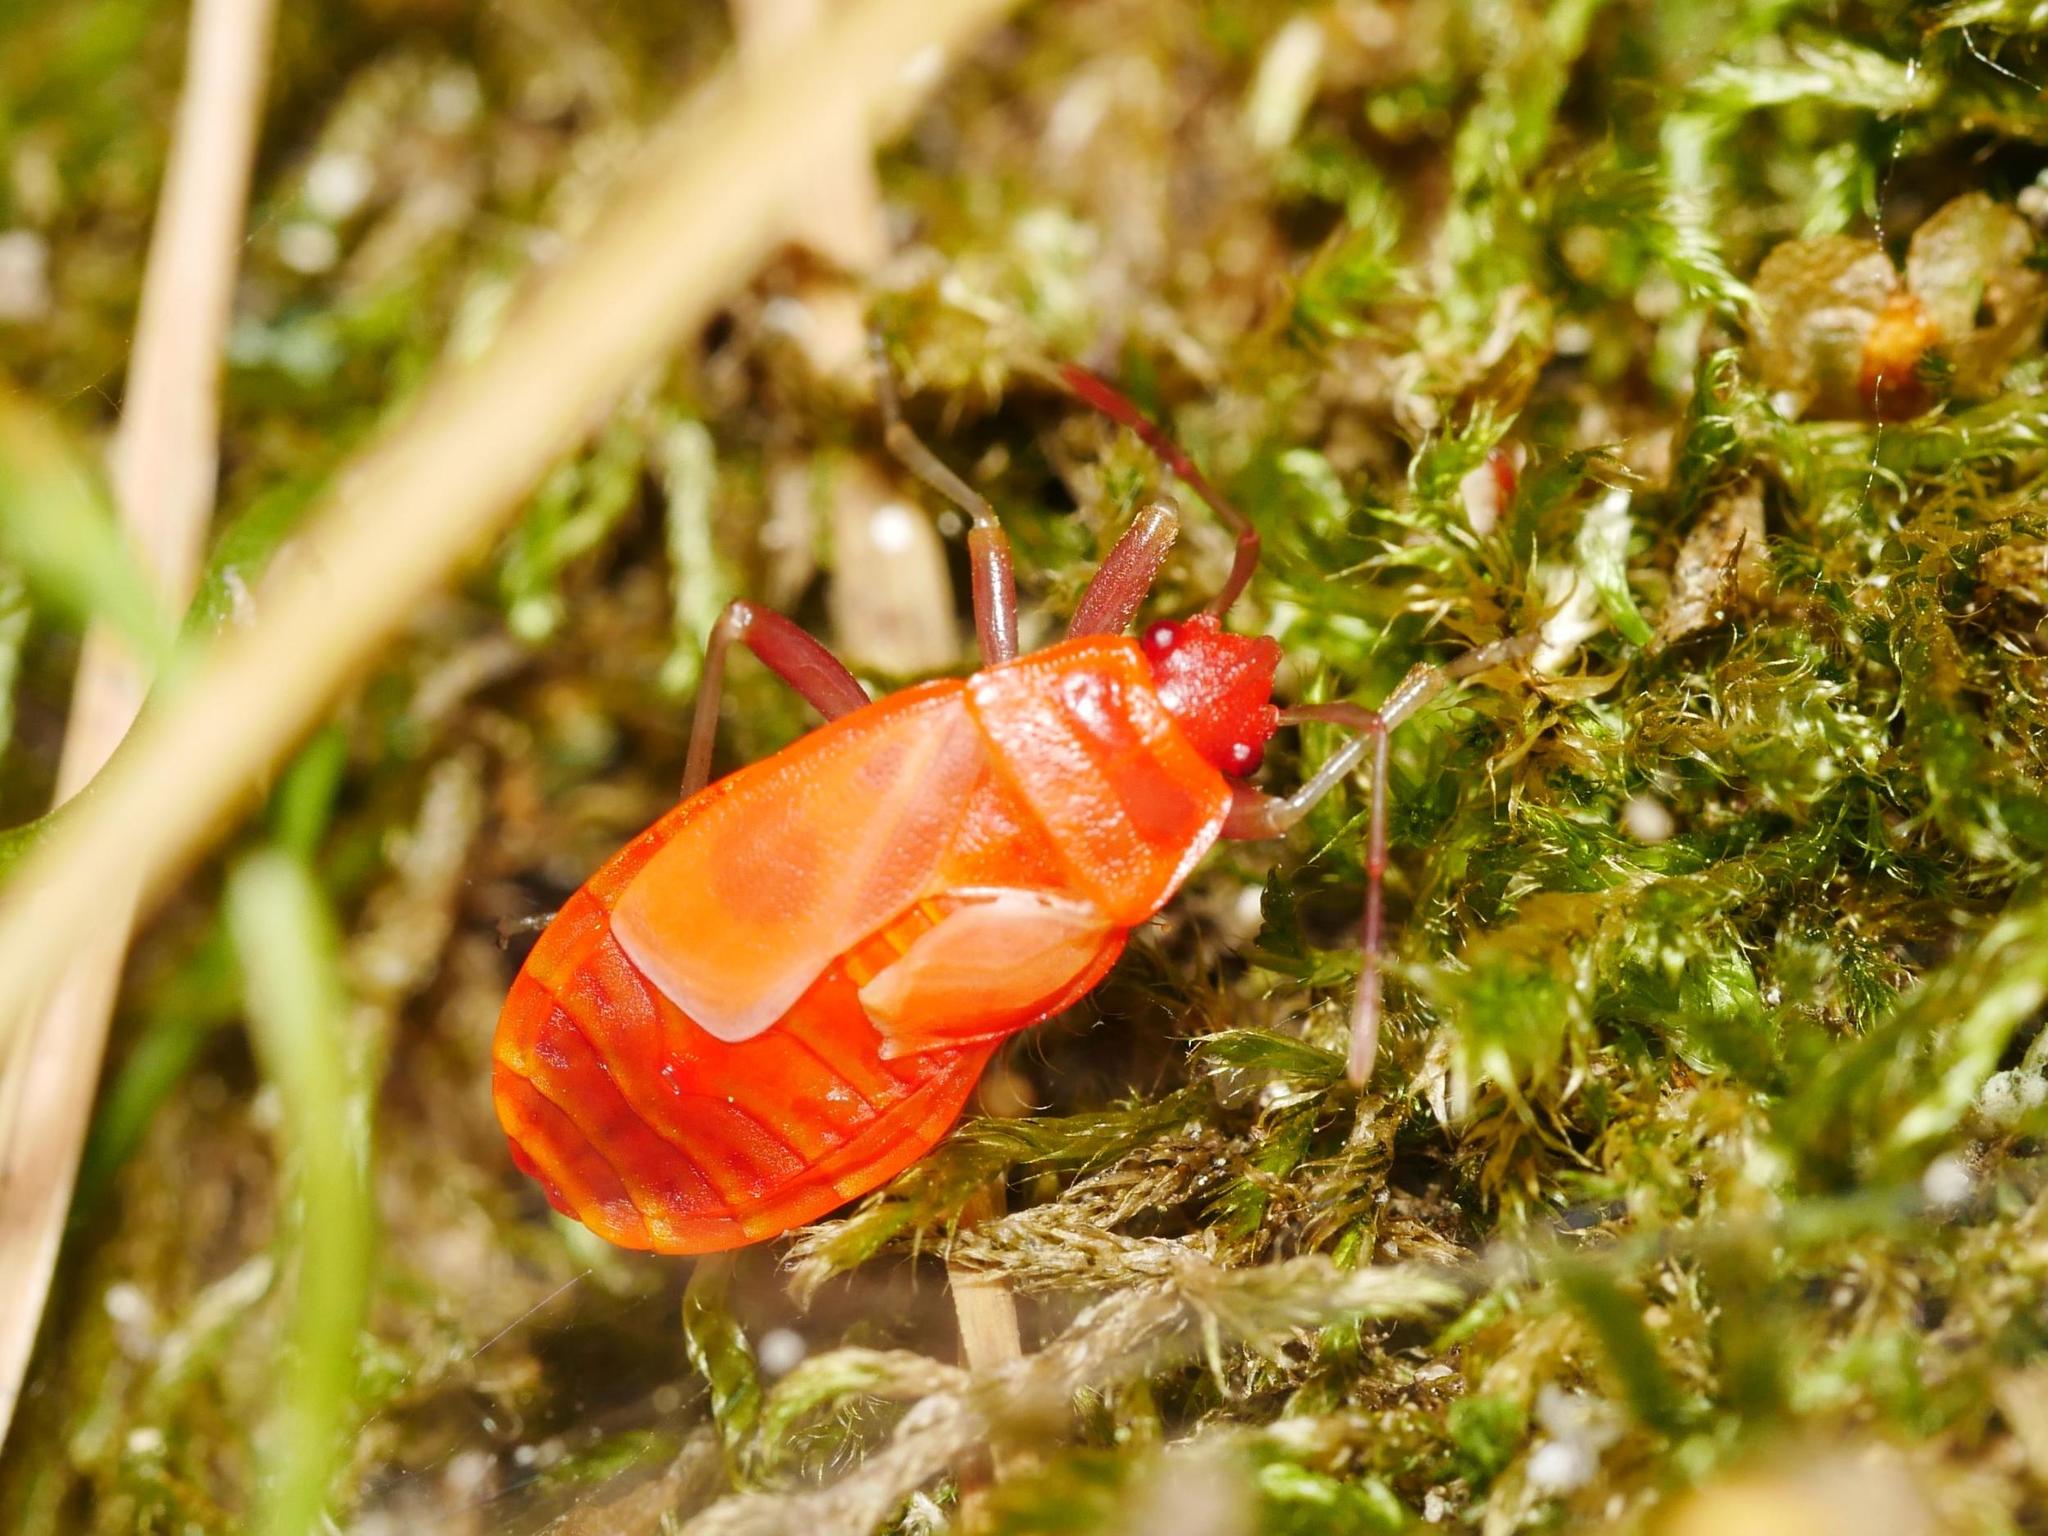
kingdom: Animalia
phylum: Arthropoda
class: Insecta
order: Hemiptera
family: Pyrrhocoridae
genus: Pyrrhocoris
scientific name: Pyrrhocoris apterus
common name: Firebug
